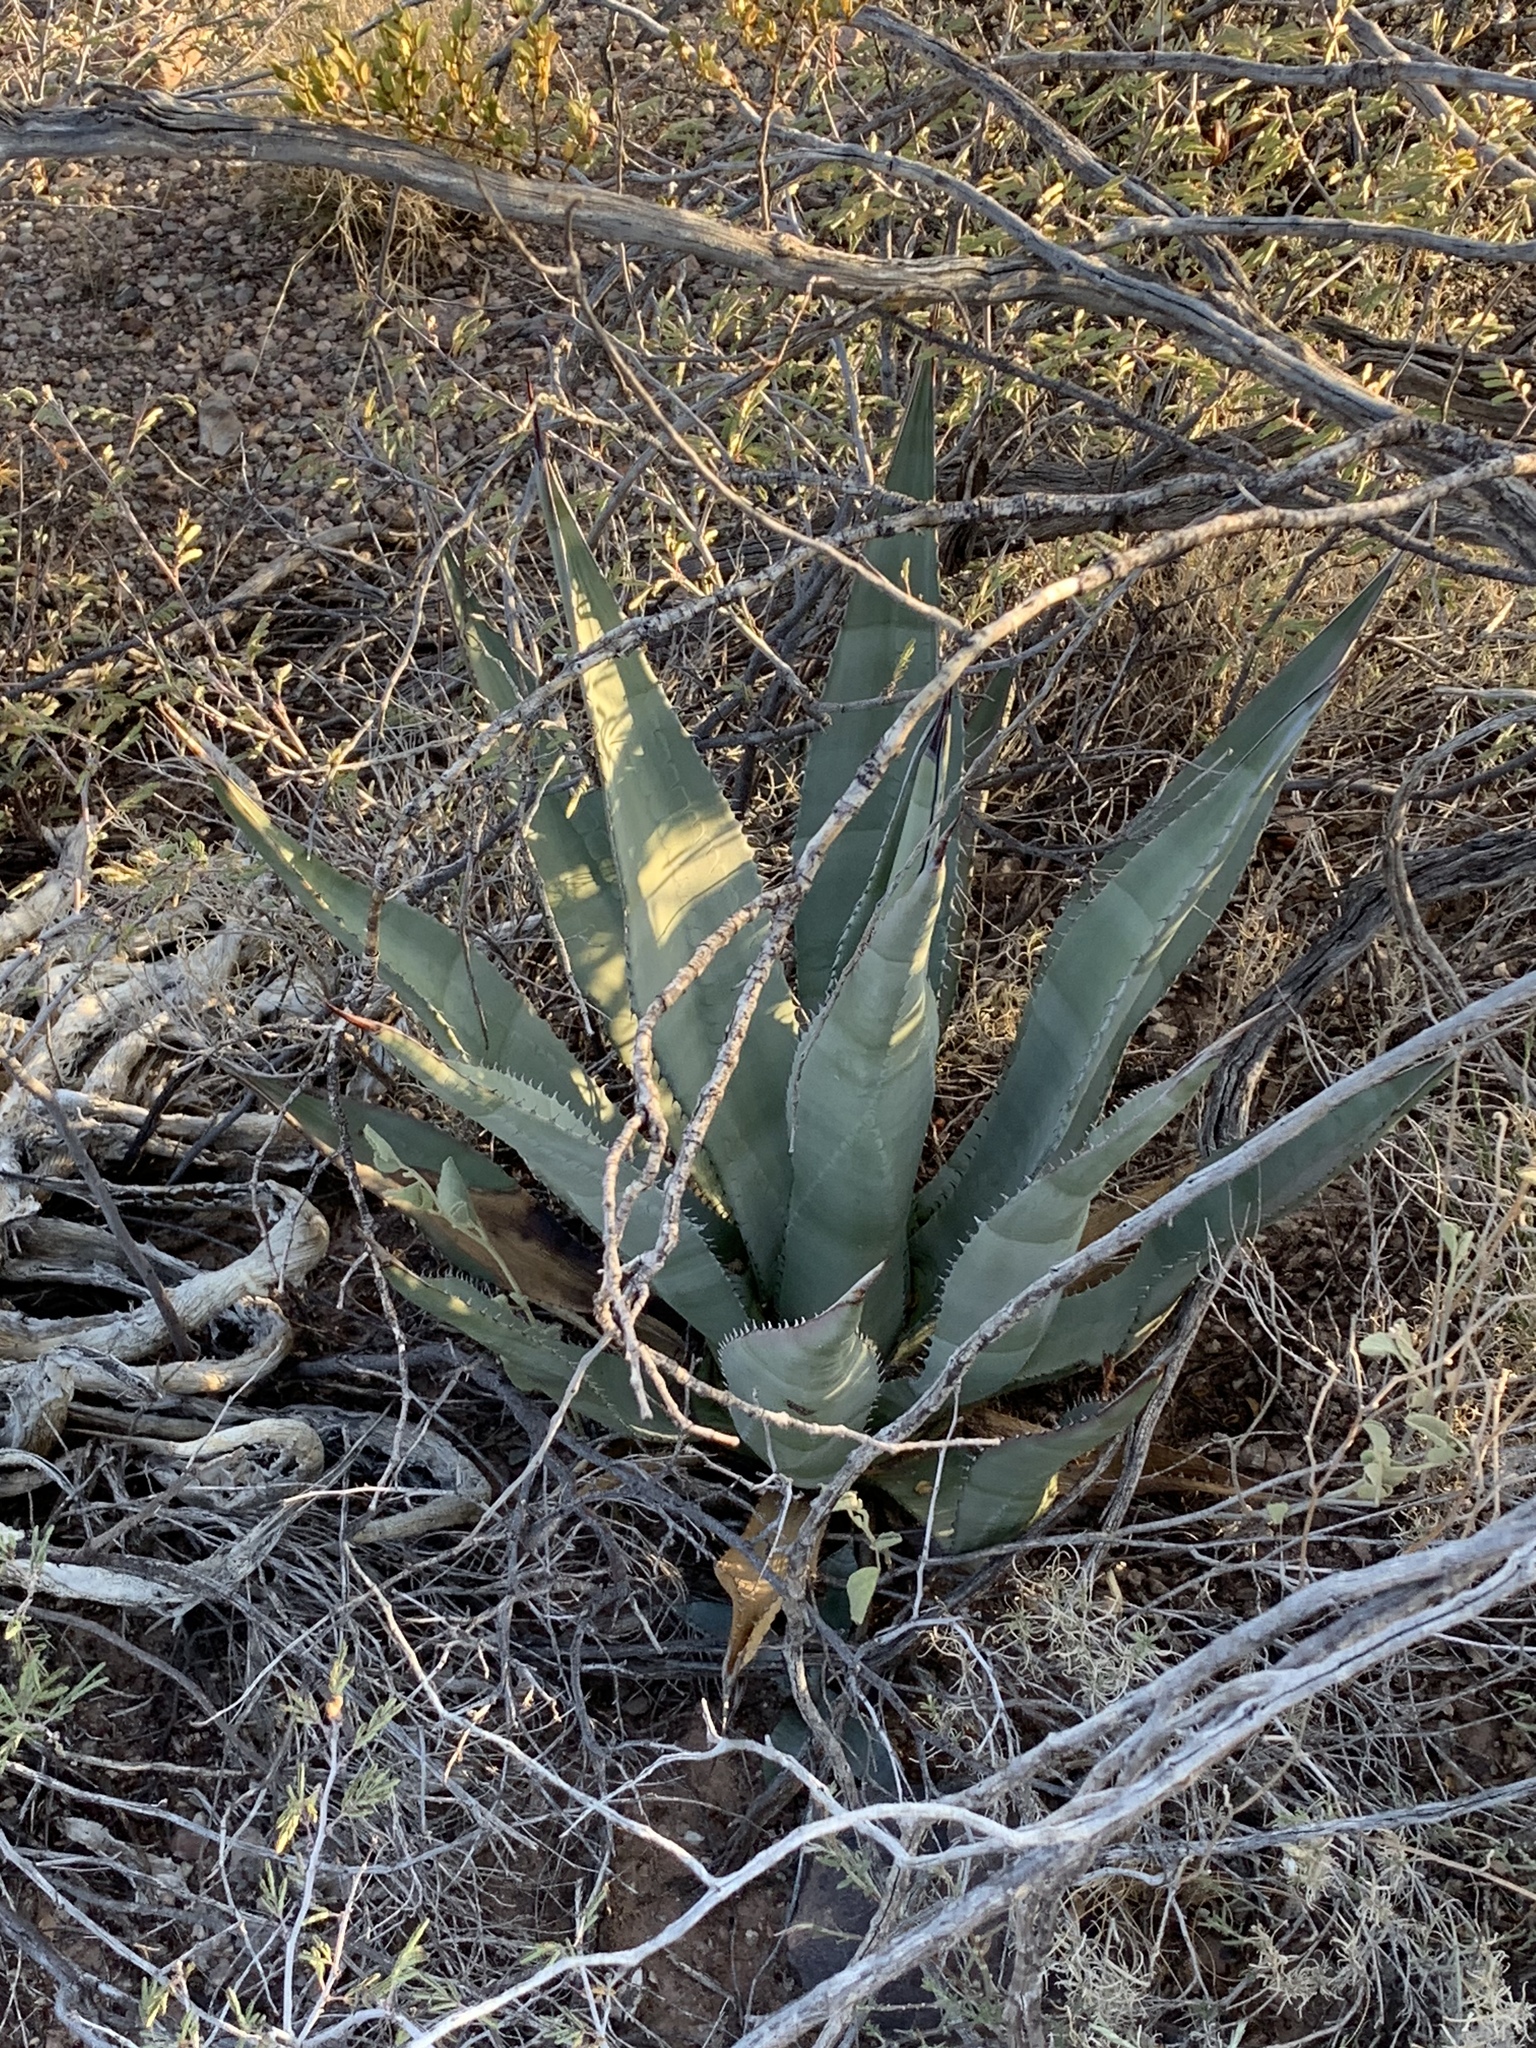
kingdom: Plantae
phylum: Tracheophyta
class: Liliopsida
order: Asparagales
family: Asparagaceae
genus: Agave
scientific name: Agave palmeri
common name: Palmer agave
